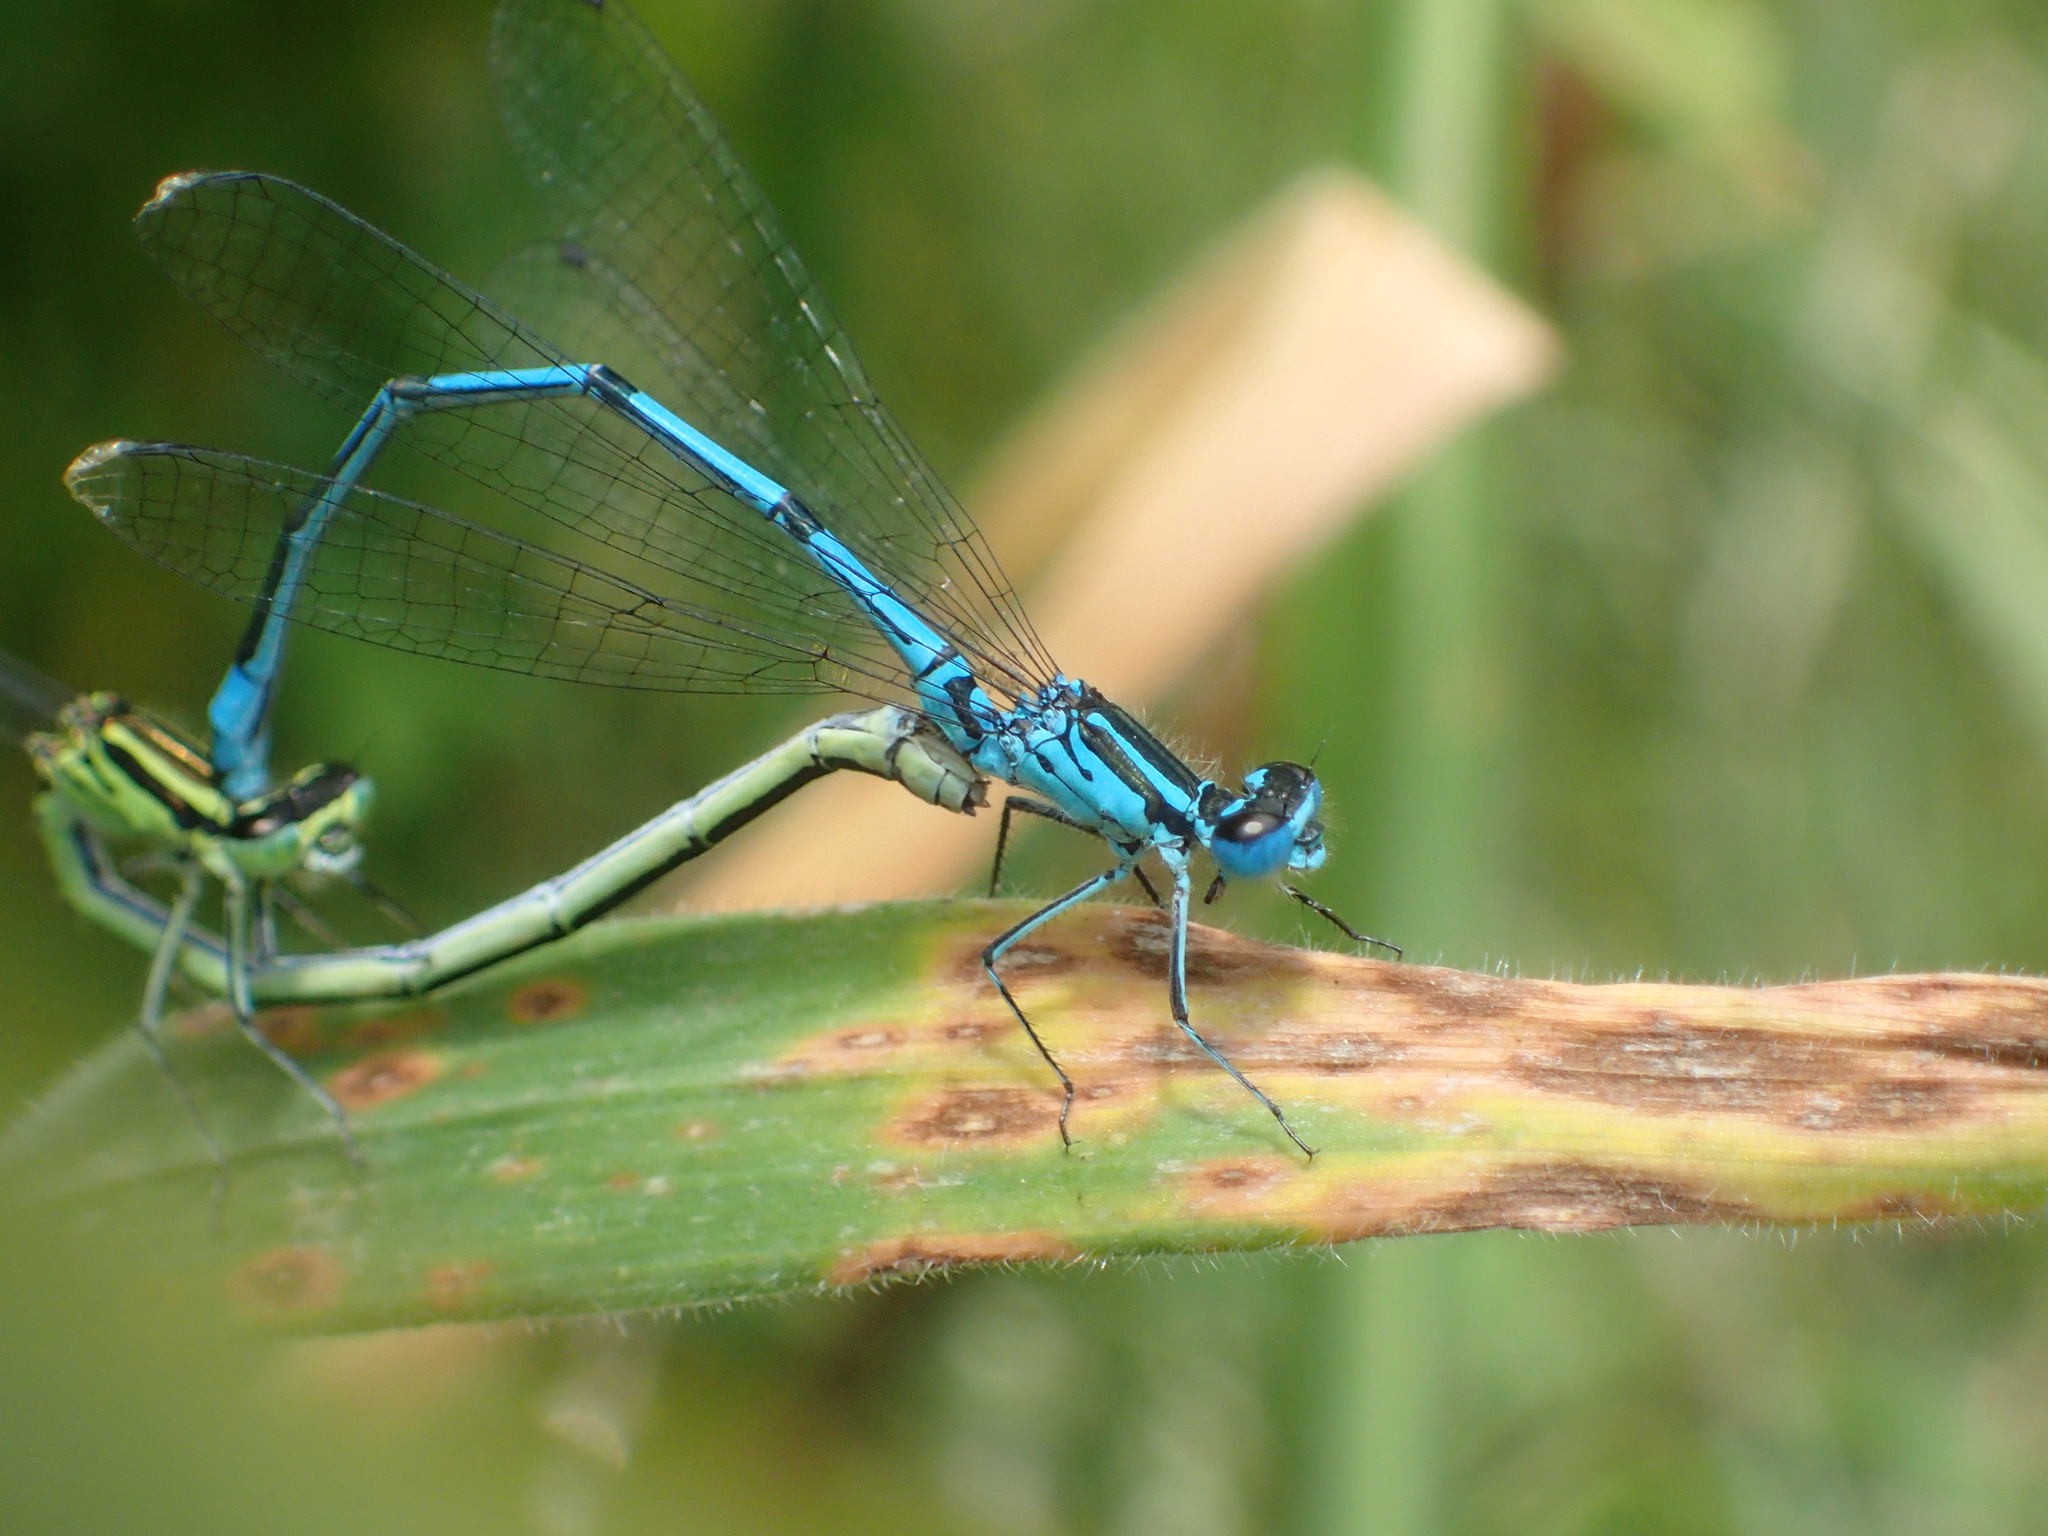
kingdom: Animalia
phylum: Arthropoda
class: Insecta
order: Odonata
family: Coenagrionidae
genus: Coenagrion
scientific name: Coenagrion puella
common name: Azure damselfly
